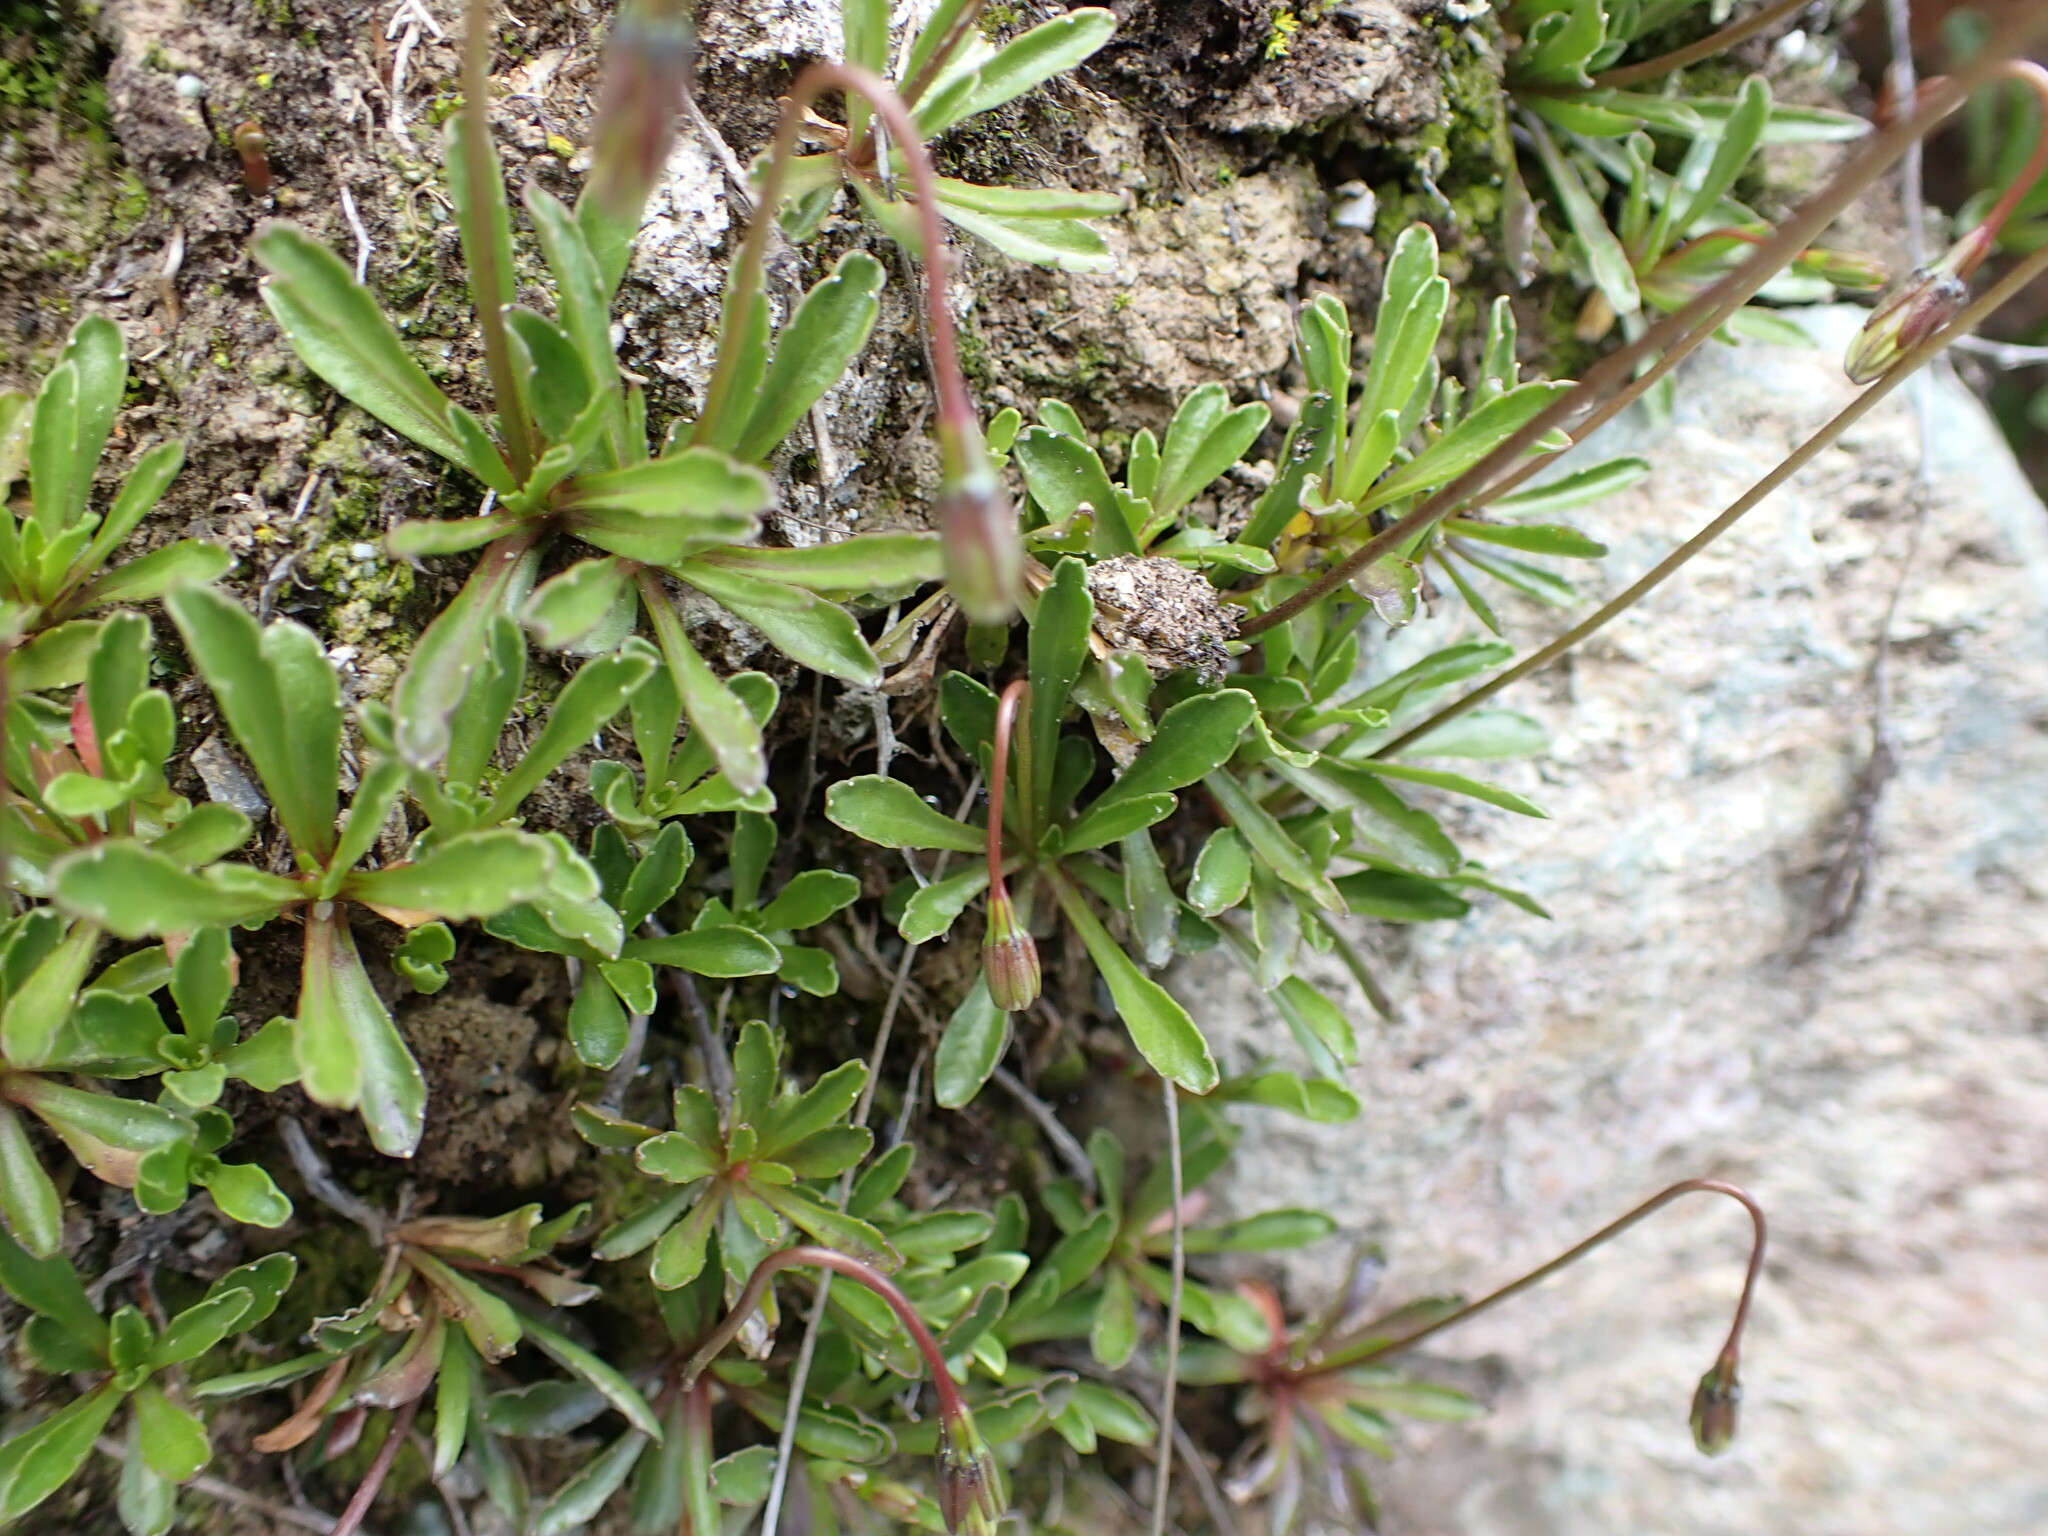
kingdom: Plantae
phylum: Tracheophyta
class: Magnoliopsida
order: Asterales
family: Campanulaceae
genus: Wahlenbergia
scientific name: Wahlenbergia albomarginata
